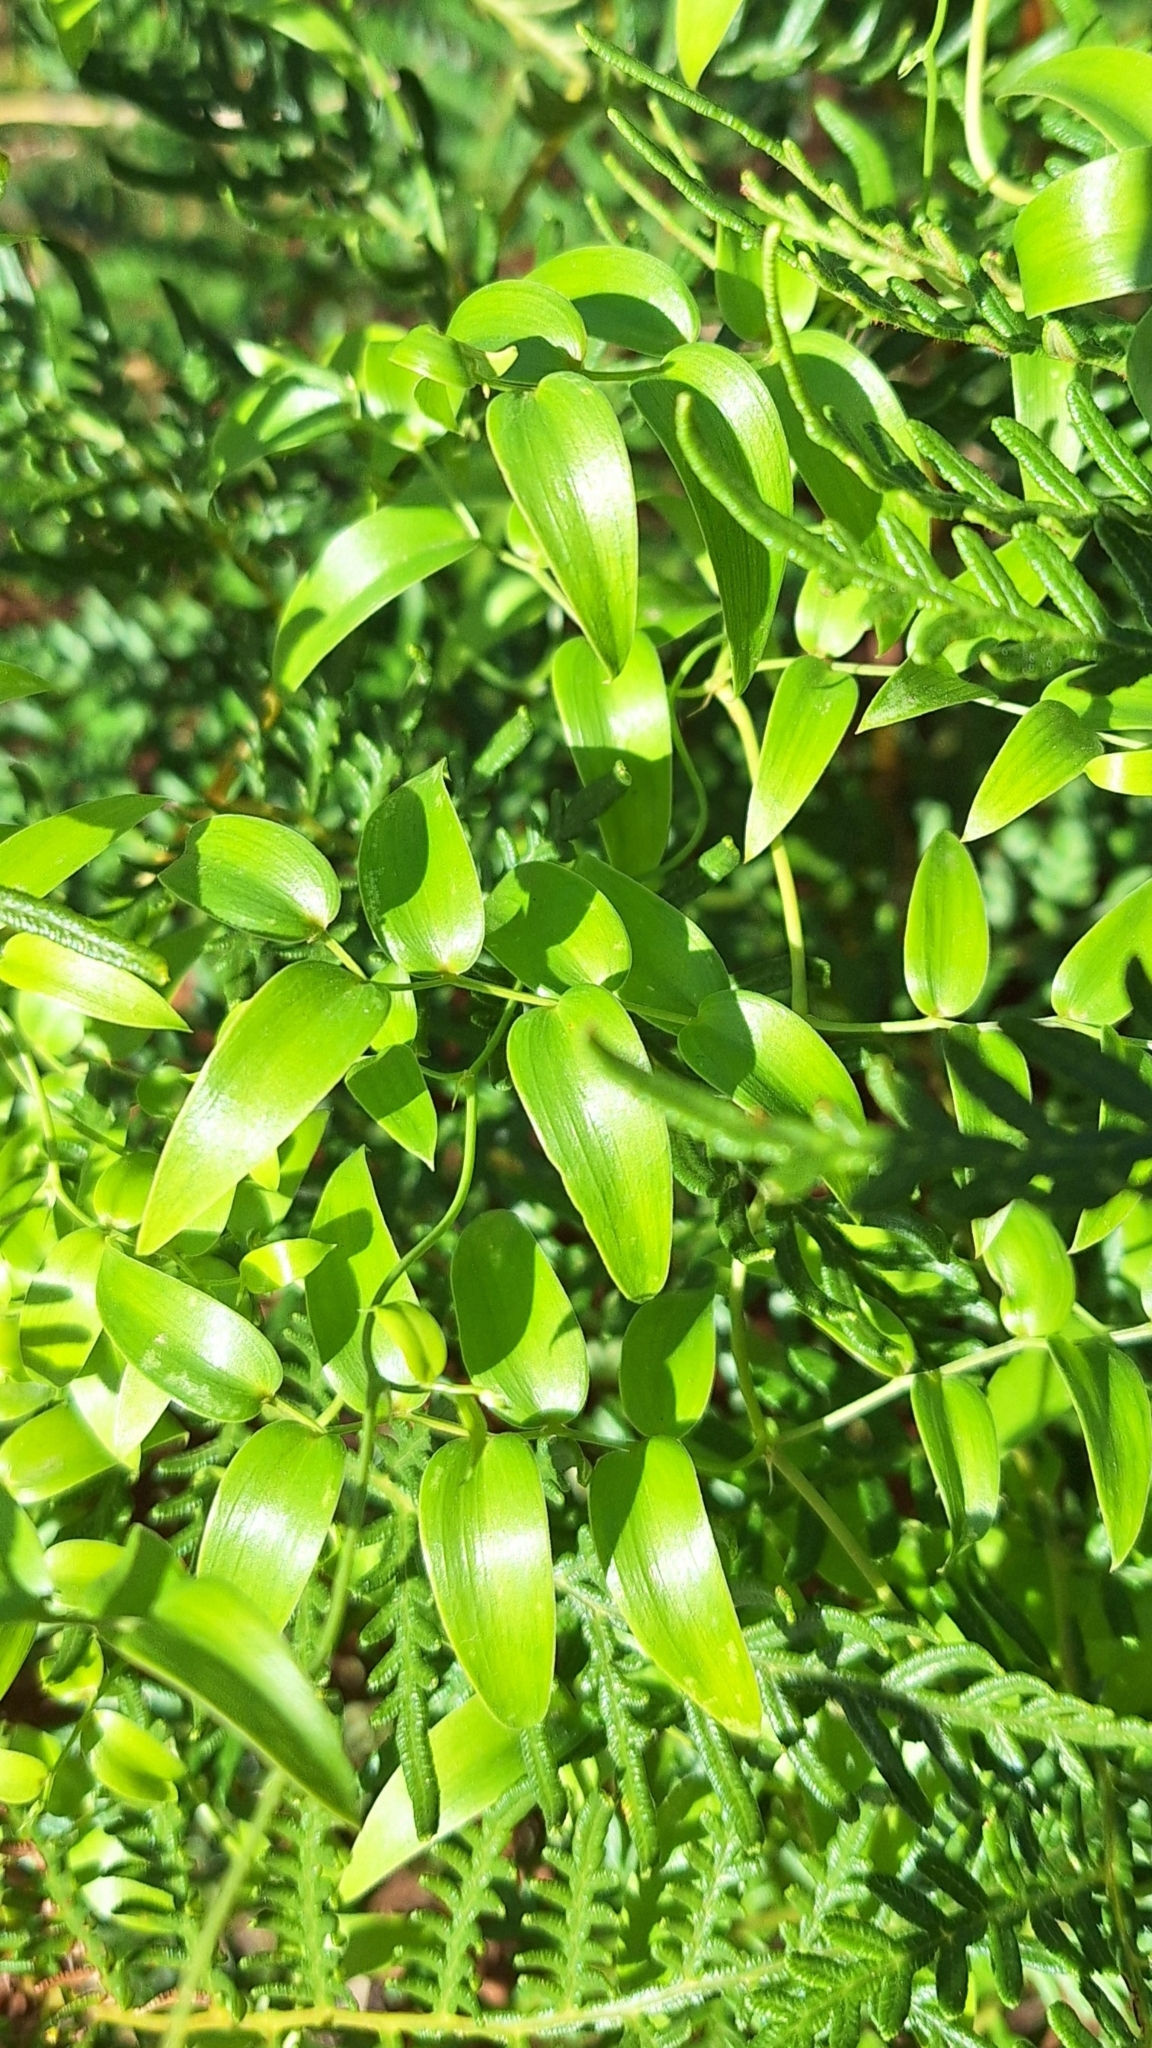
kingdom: Plantae
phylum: Tracheophyta
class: Liliopsida
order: Asparagales
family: Asparagaceae
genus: Asparagus
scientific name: Asparagus asparagoides
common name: African asparagus fern
